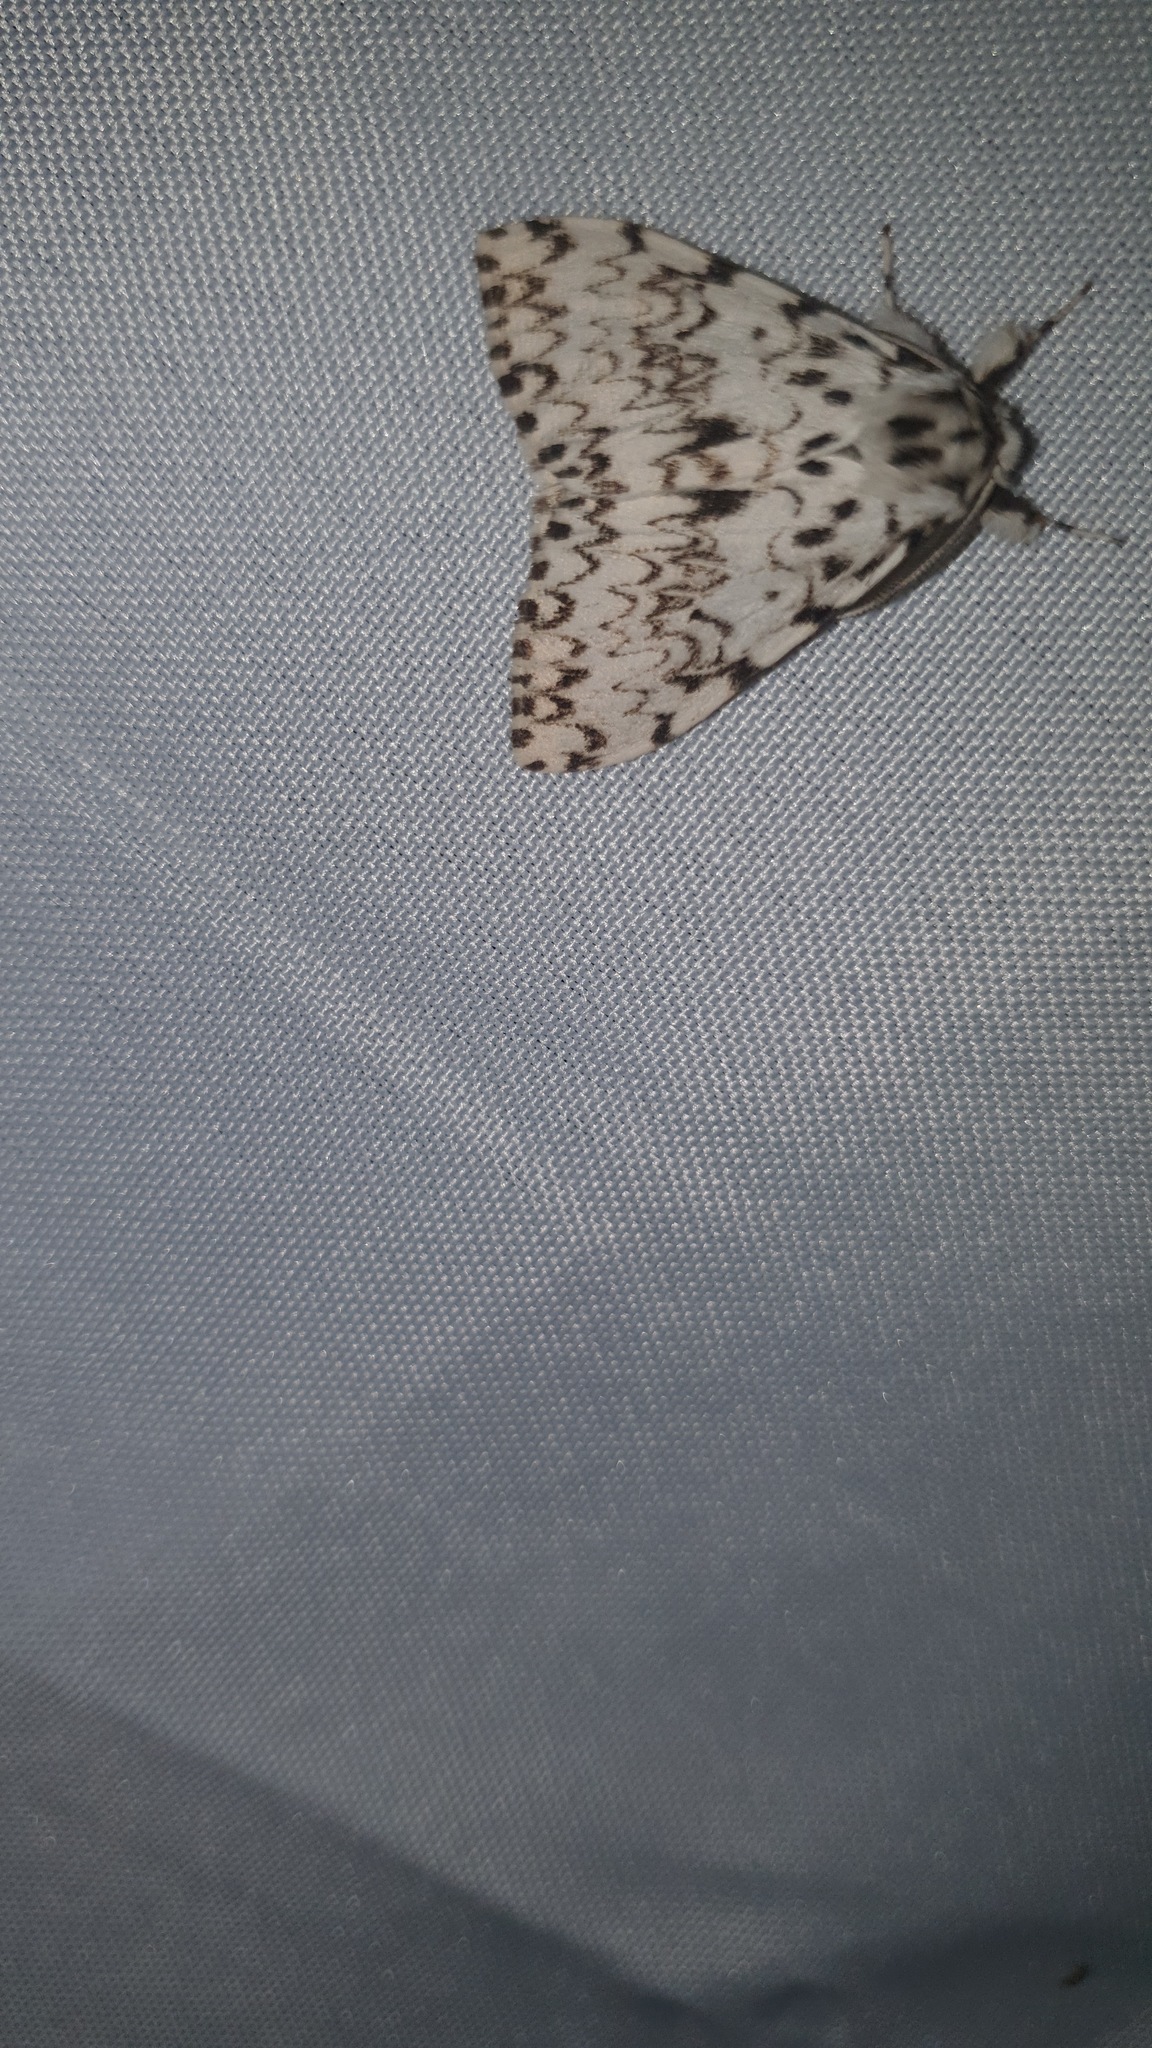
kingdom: Animalia
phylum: Arthropoda
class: Insecta
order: Lepidoptera
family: Erebidae
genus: Lymantria
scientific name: Lymantria monacha
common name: Black arches
